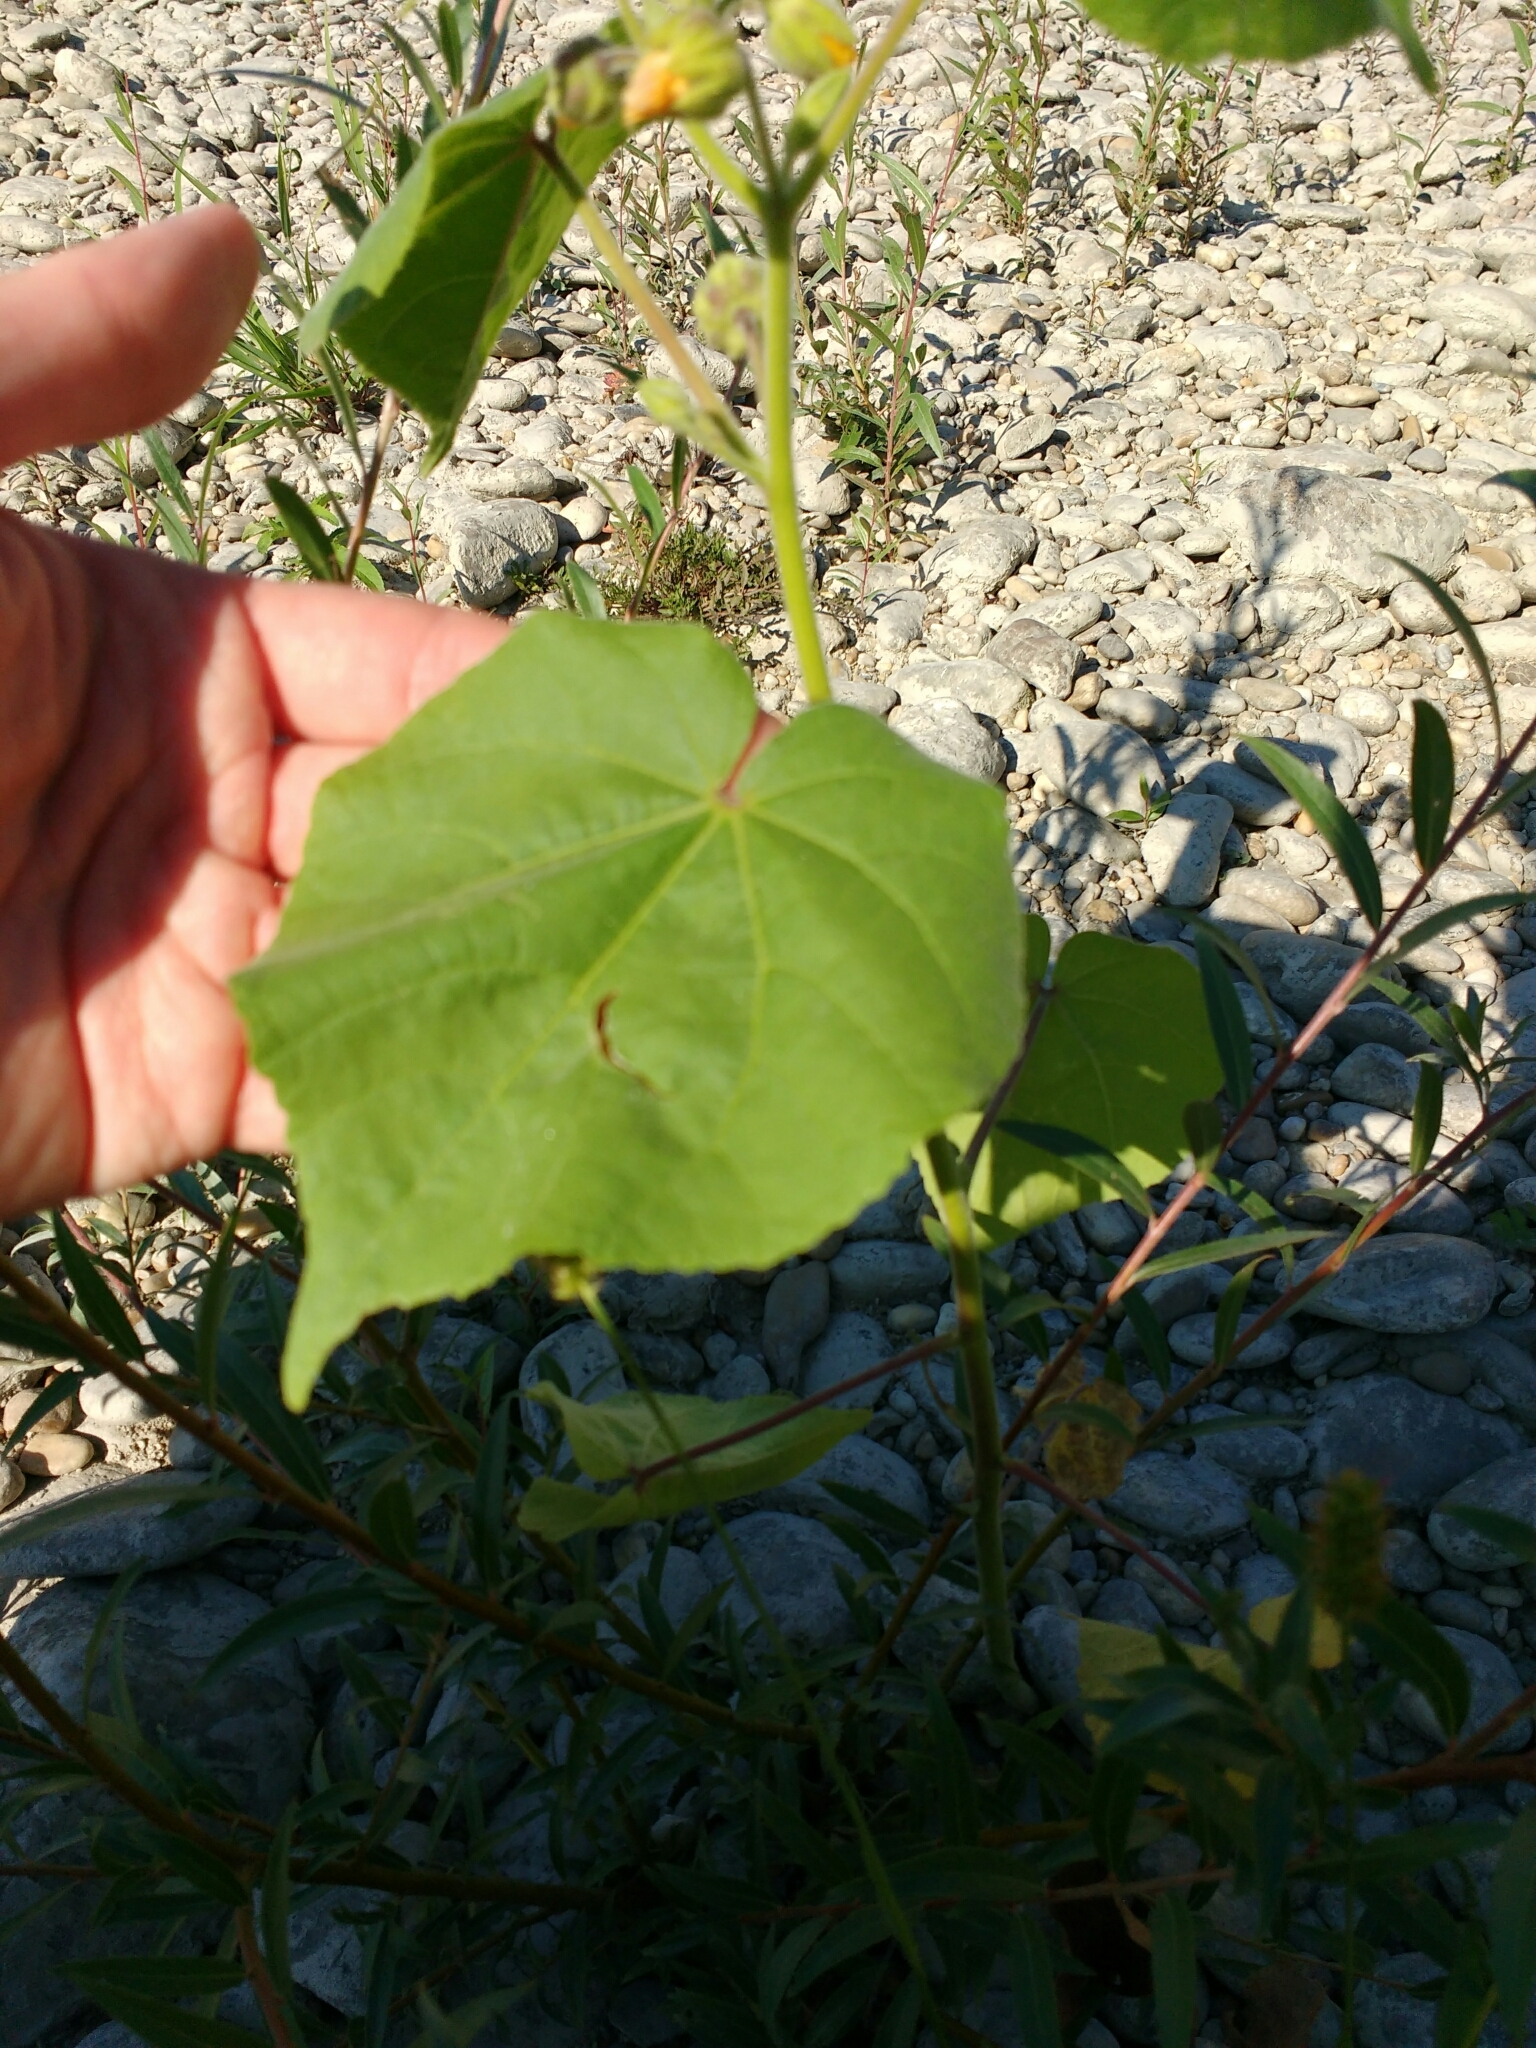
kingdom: Plantae
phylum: Tracheophyta
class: Magnoliopsida
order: Malvales
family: Malvaceae
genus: Abutilon
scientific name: Abutilon theophrasti
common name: Velvetleaf
